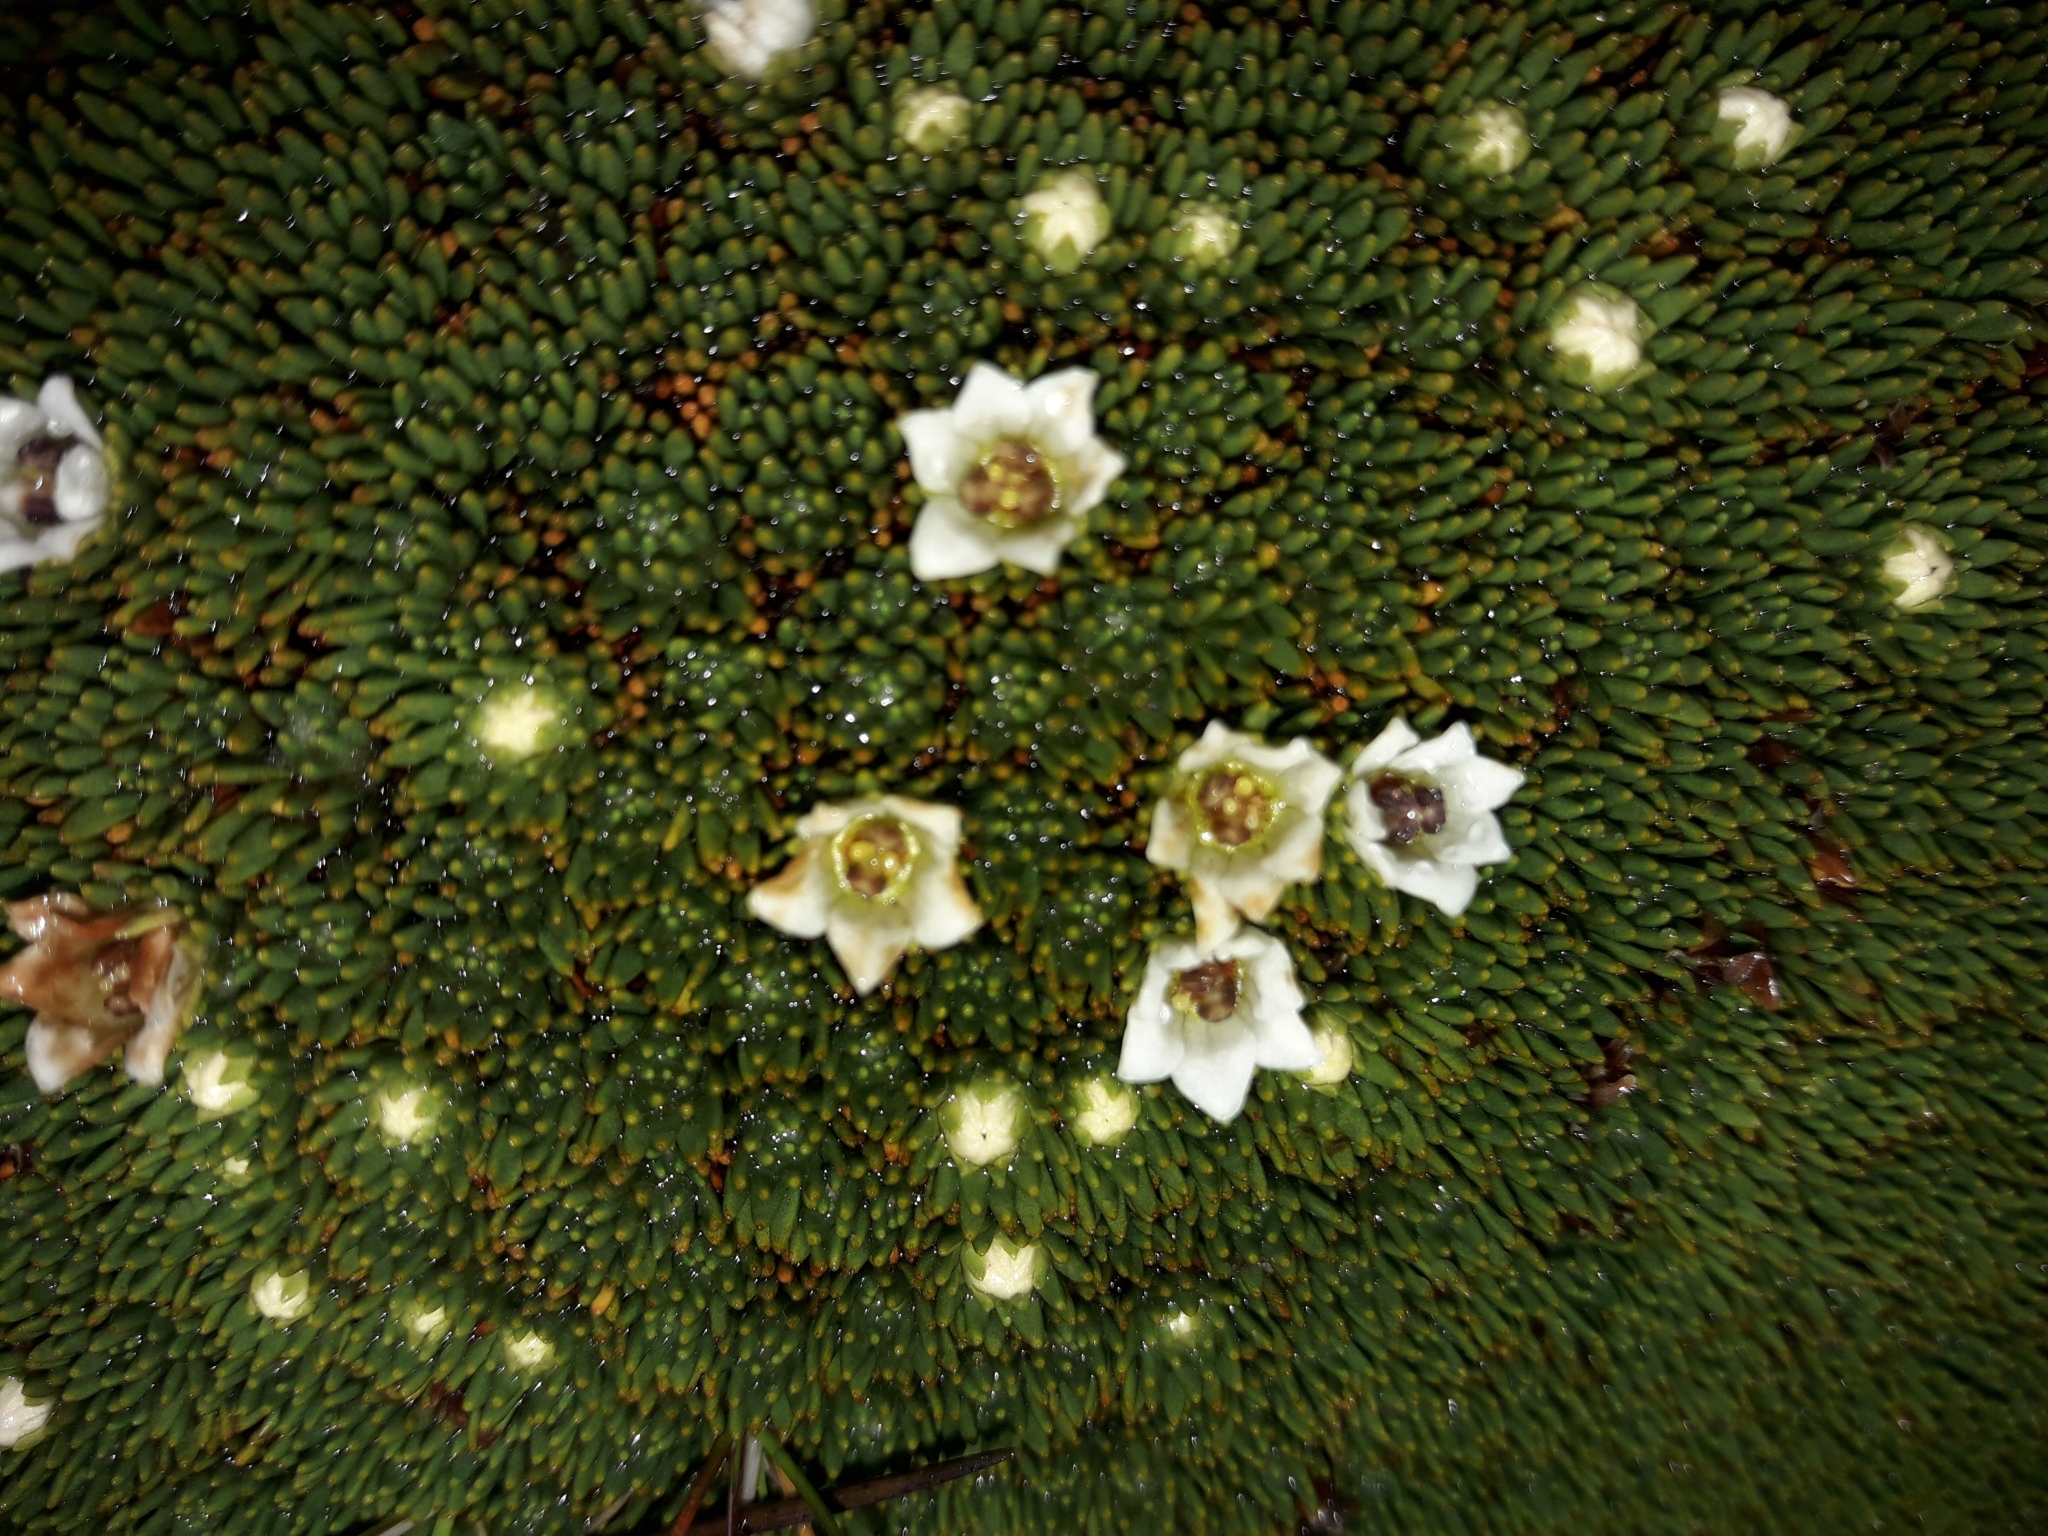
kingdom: Plantae
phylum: Tracheophyta
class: Magnoliopsida
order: Asterales
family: Stylidiaceae
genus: Donatia
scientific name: Donatia novae-zelandiae
